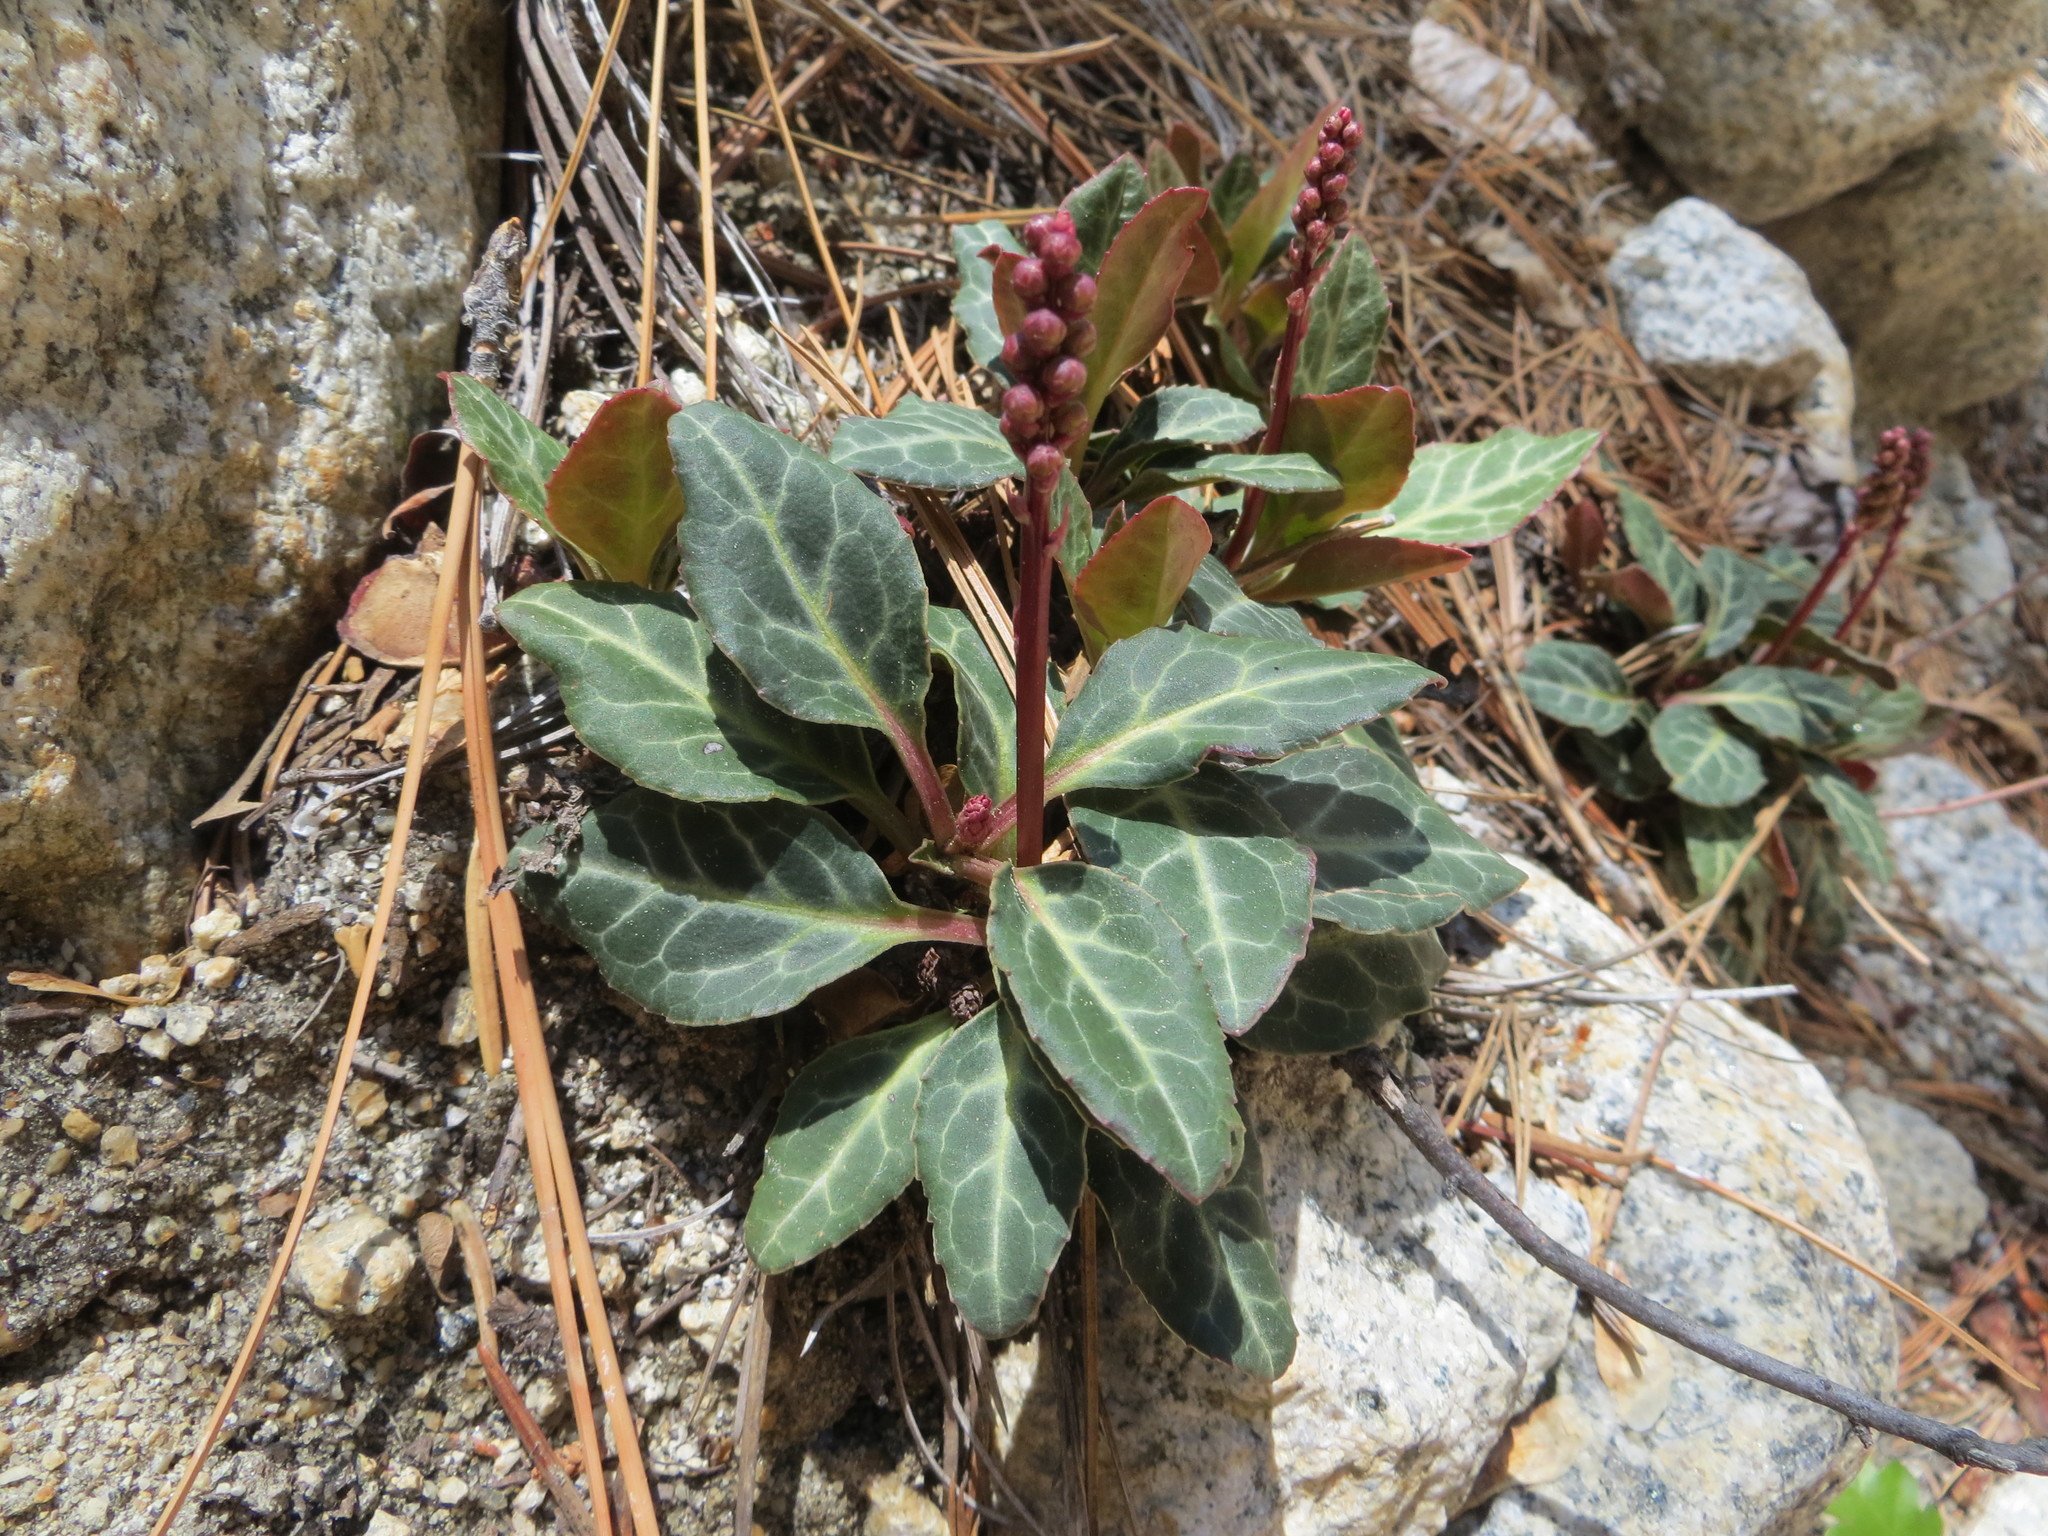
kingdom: Plantae
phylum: Tracheophyta
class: Magnoliopsida
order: Ericales
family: Ericaceae
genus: Pyrola
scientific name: Pyrola picta
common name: White-vein wintergreen
